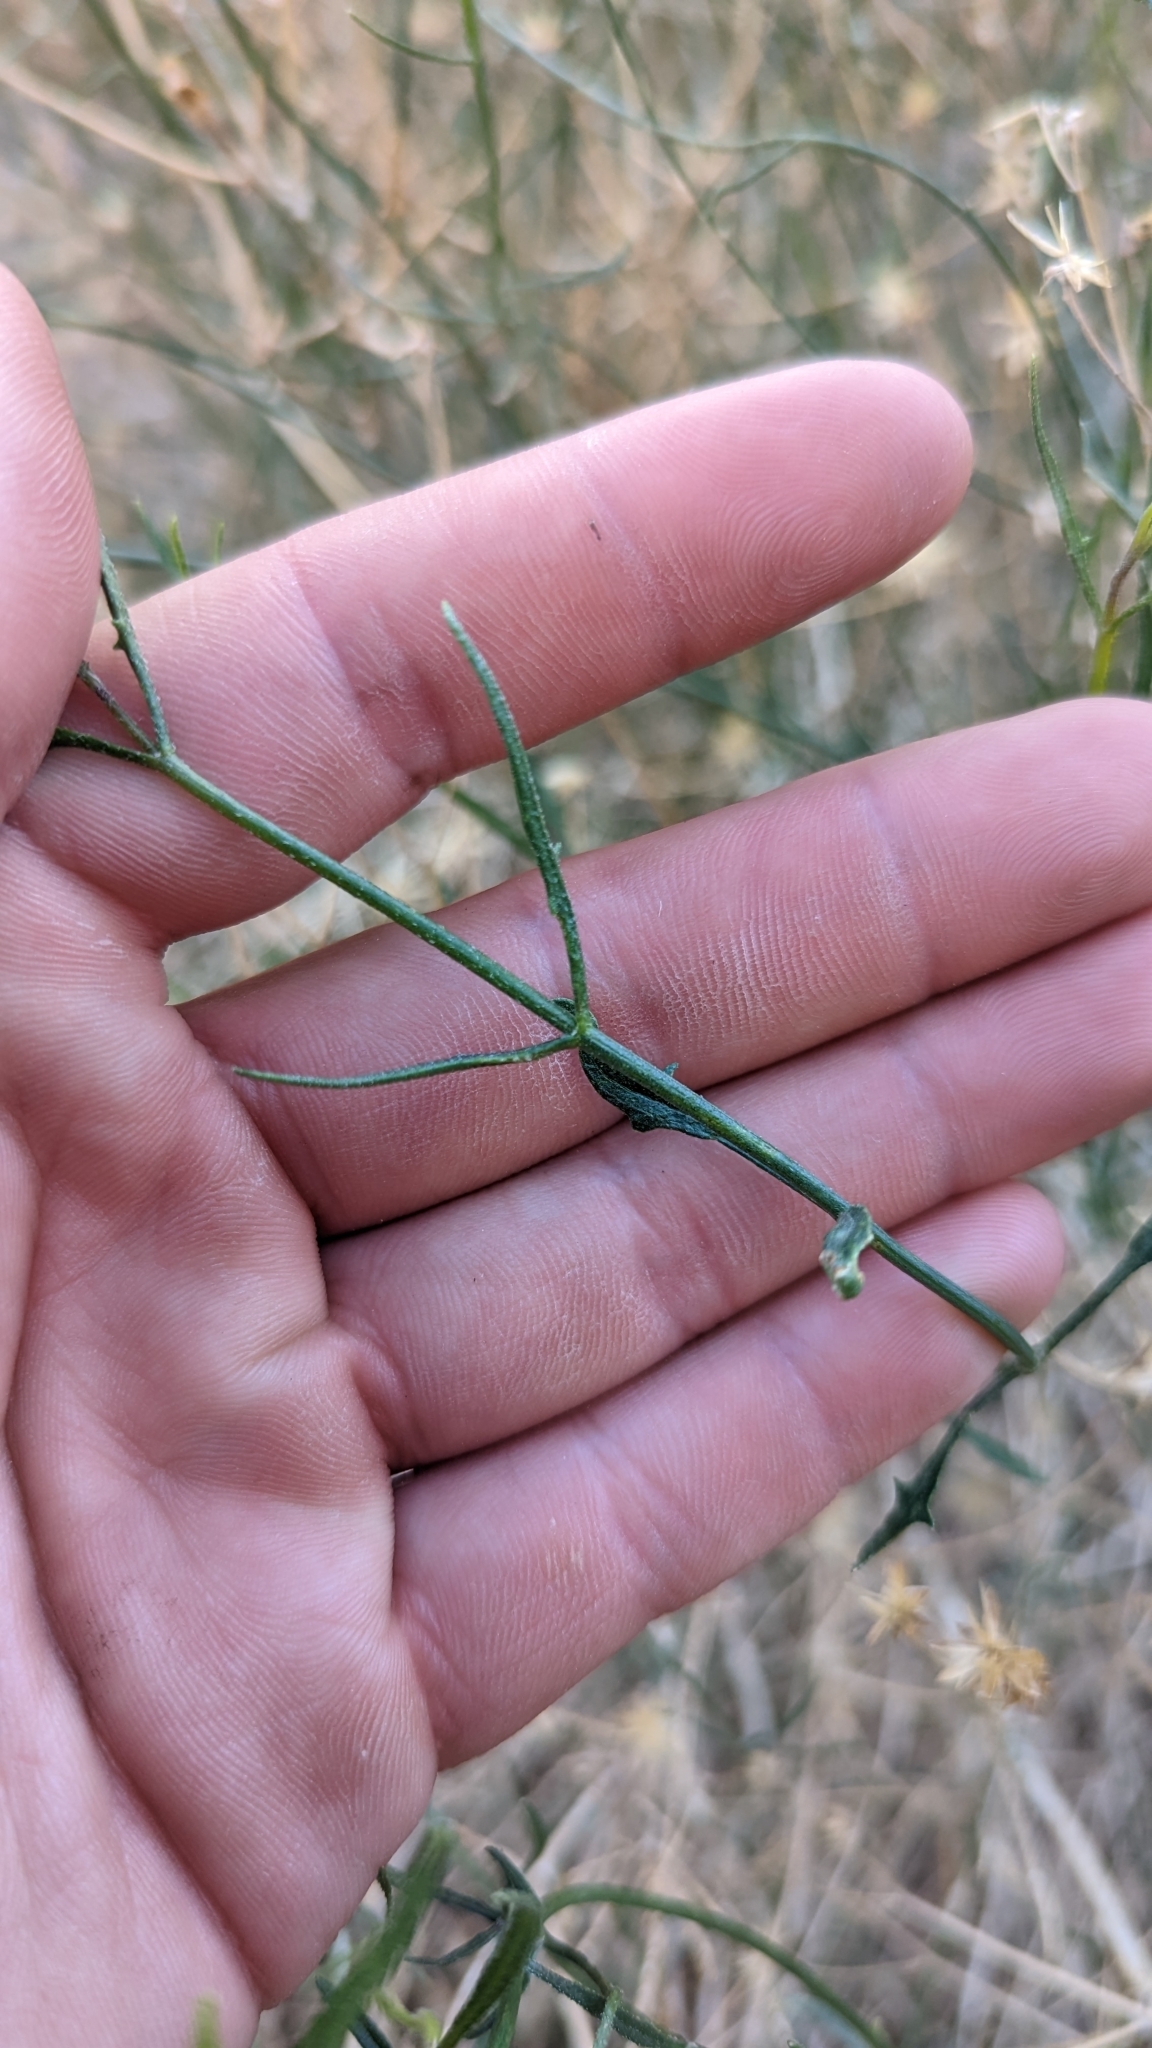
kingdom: Plantae
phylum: Tracheophyta
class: Magnoliopsida
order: Asterales
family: Asteraceae
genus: Bebbia
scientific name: Bebbia juncea
